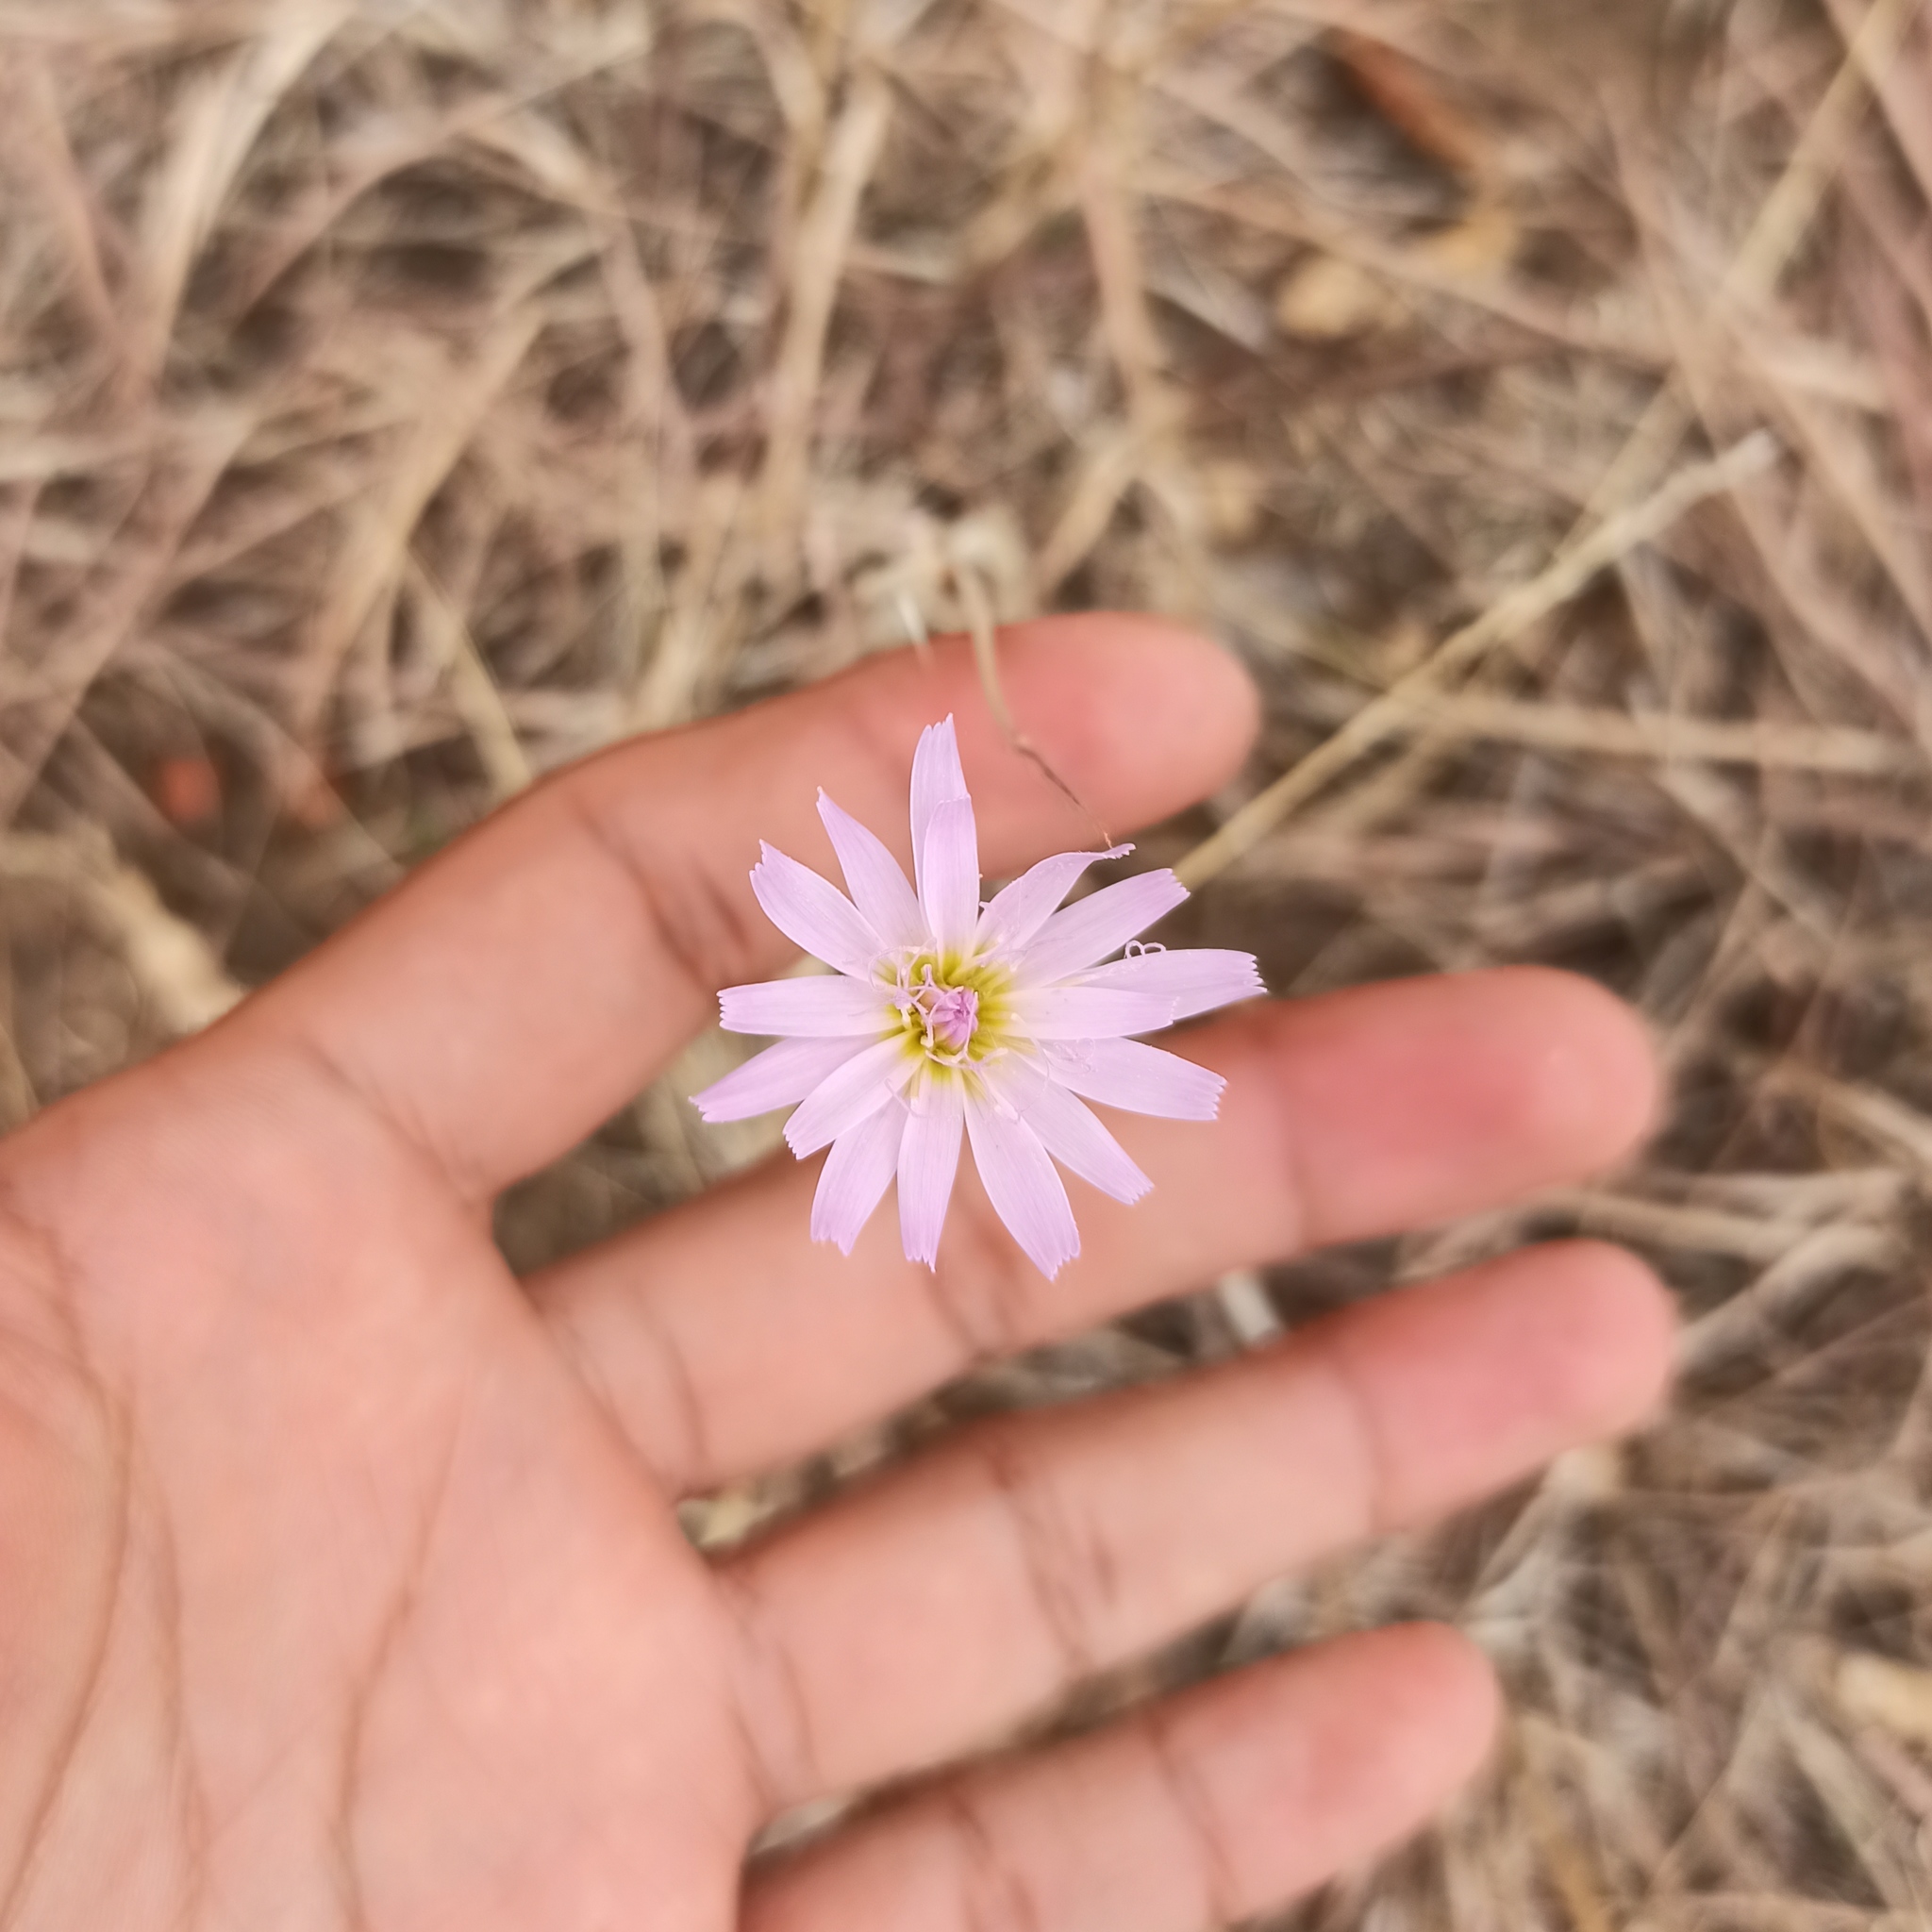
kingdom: Plantae
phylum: Tracheophyta
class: Magnoliopsida
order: Asterales
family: Asteraceae
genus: Pinaropappus
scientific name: Pinaropappus roseus
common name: Rock-lettuce
